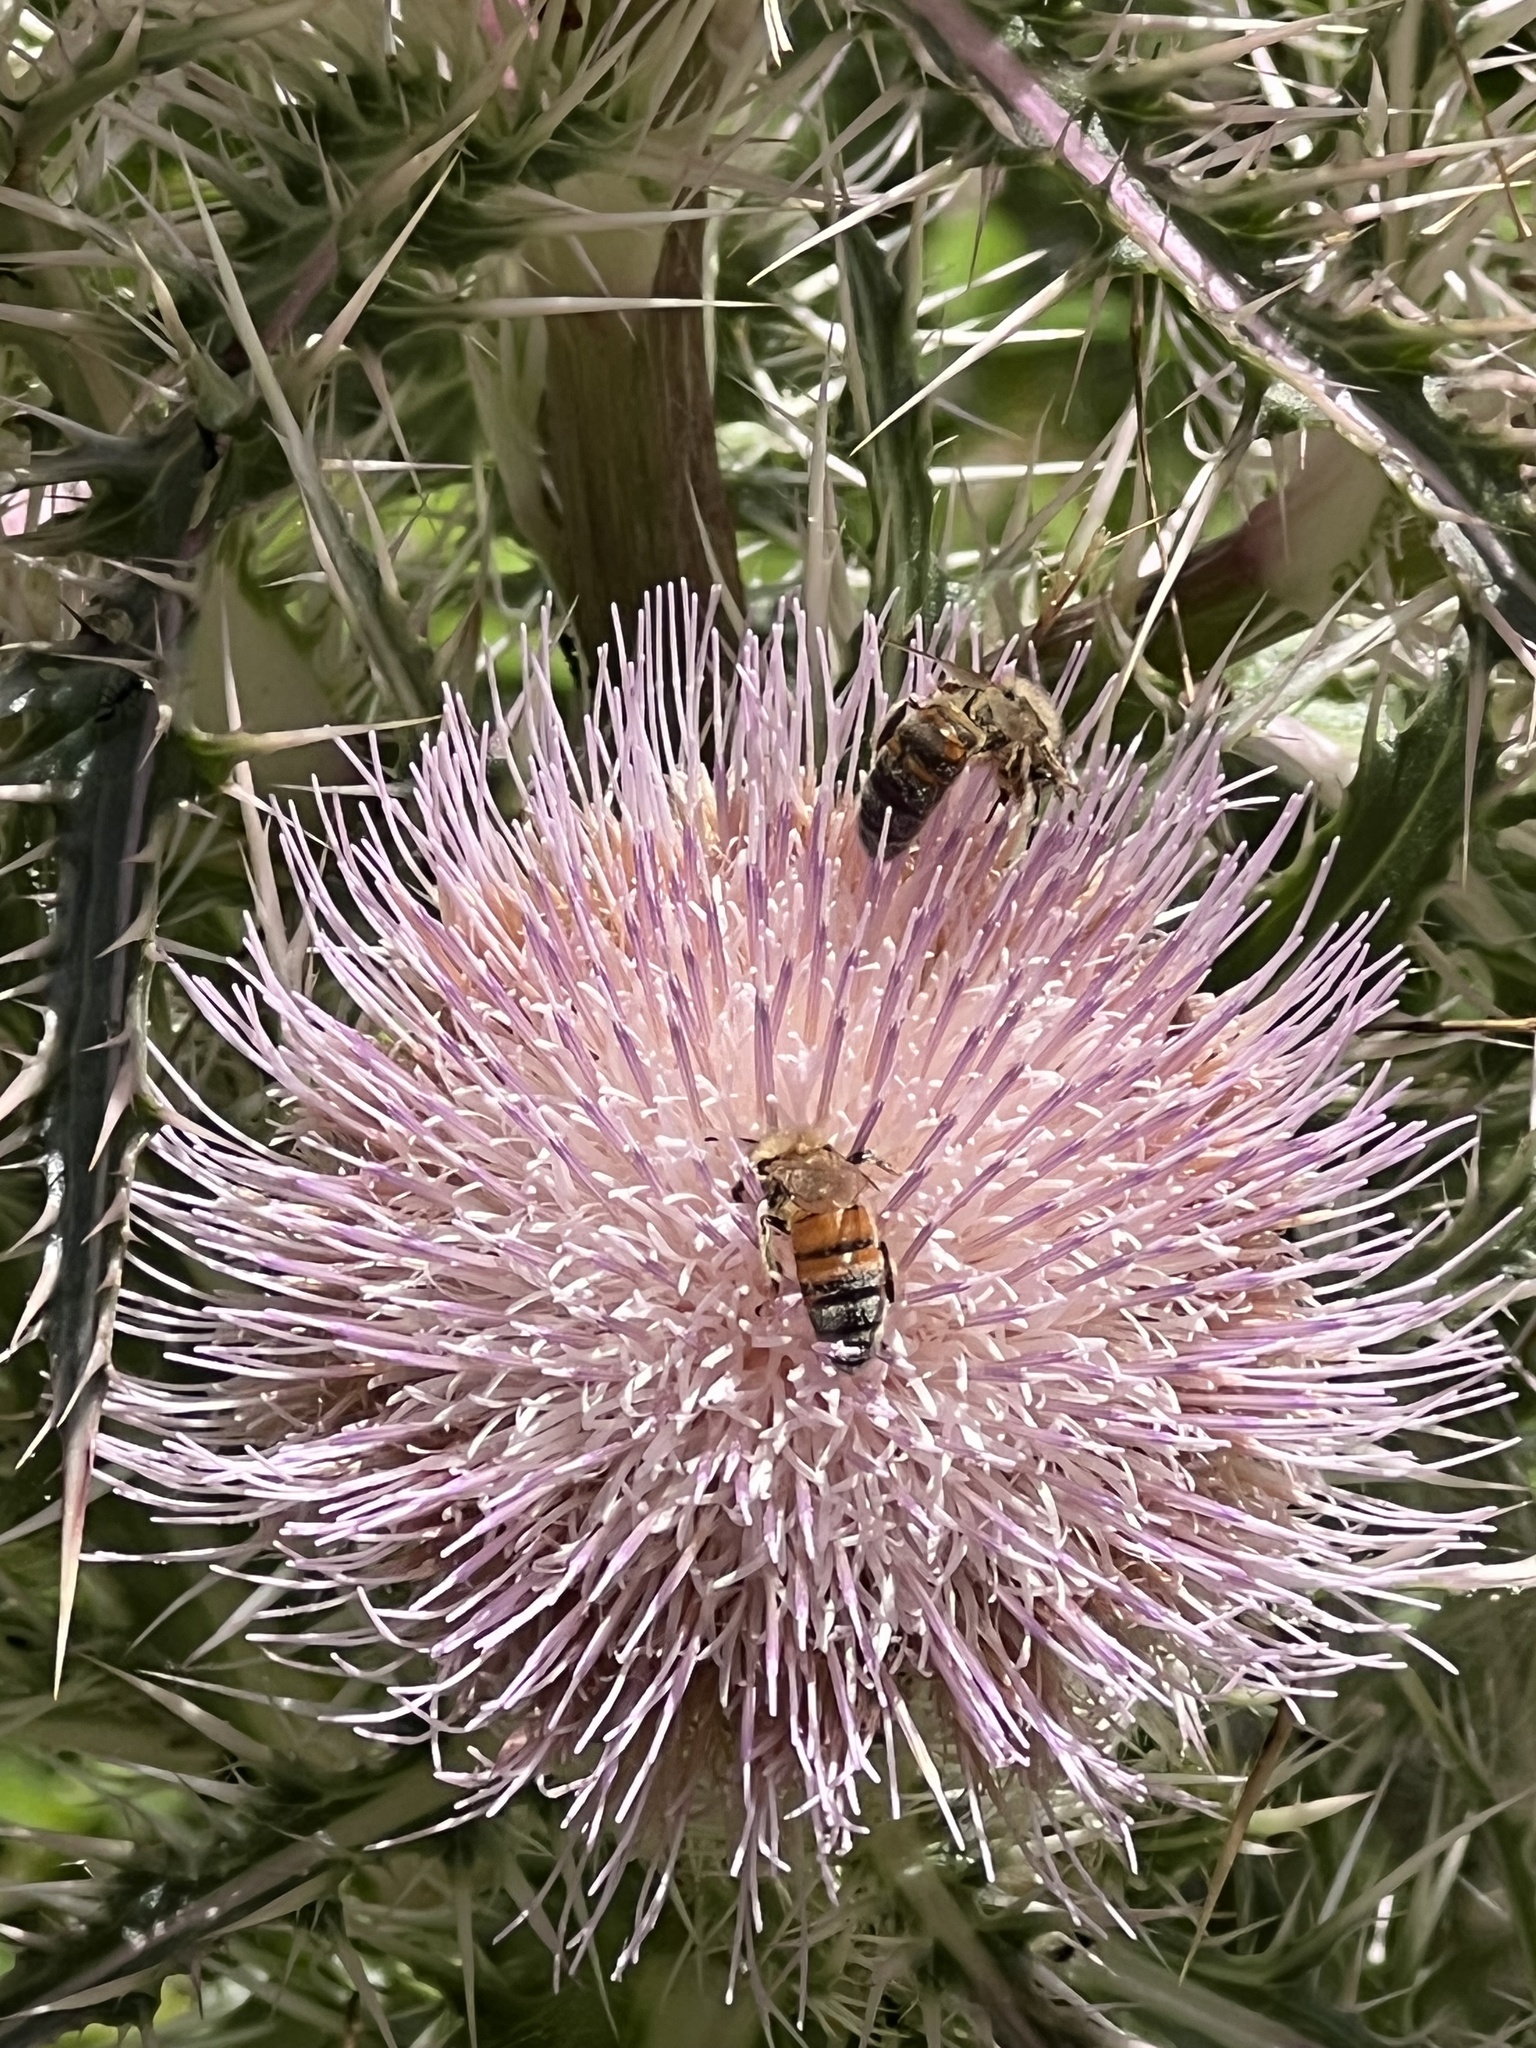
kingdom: Animalia
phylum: Arthropoda
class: Insecta
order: Hymenoptera
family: Apidae
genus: Apis
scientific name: Apis mellifera
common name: Honey bee
